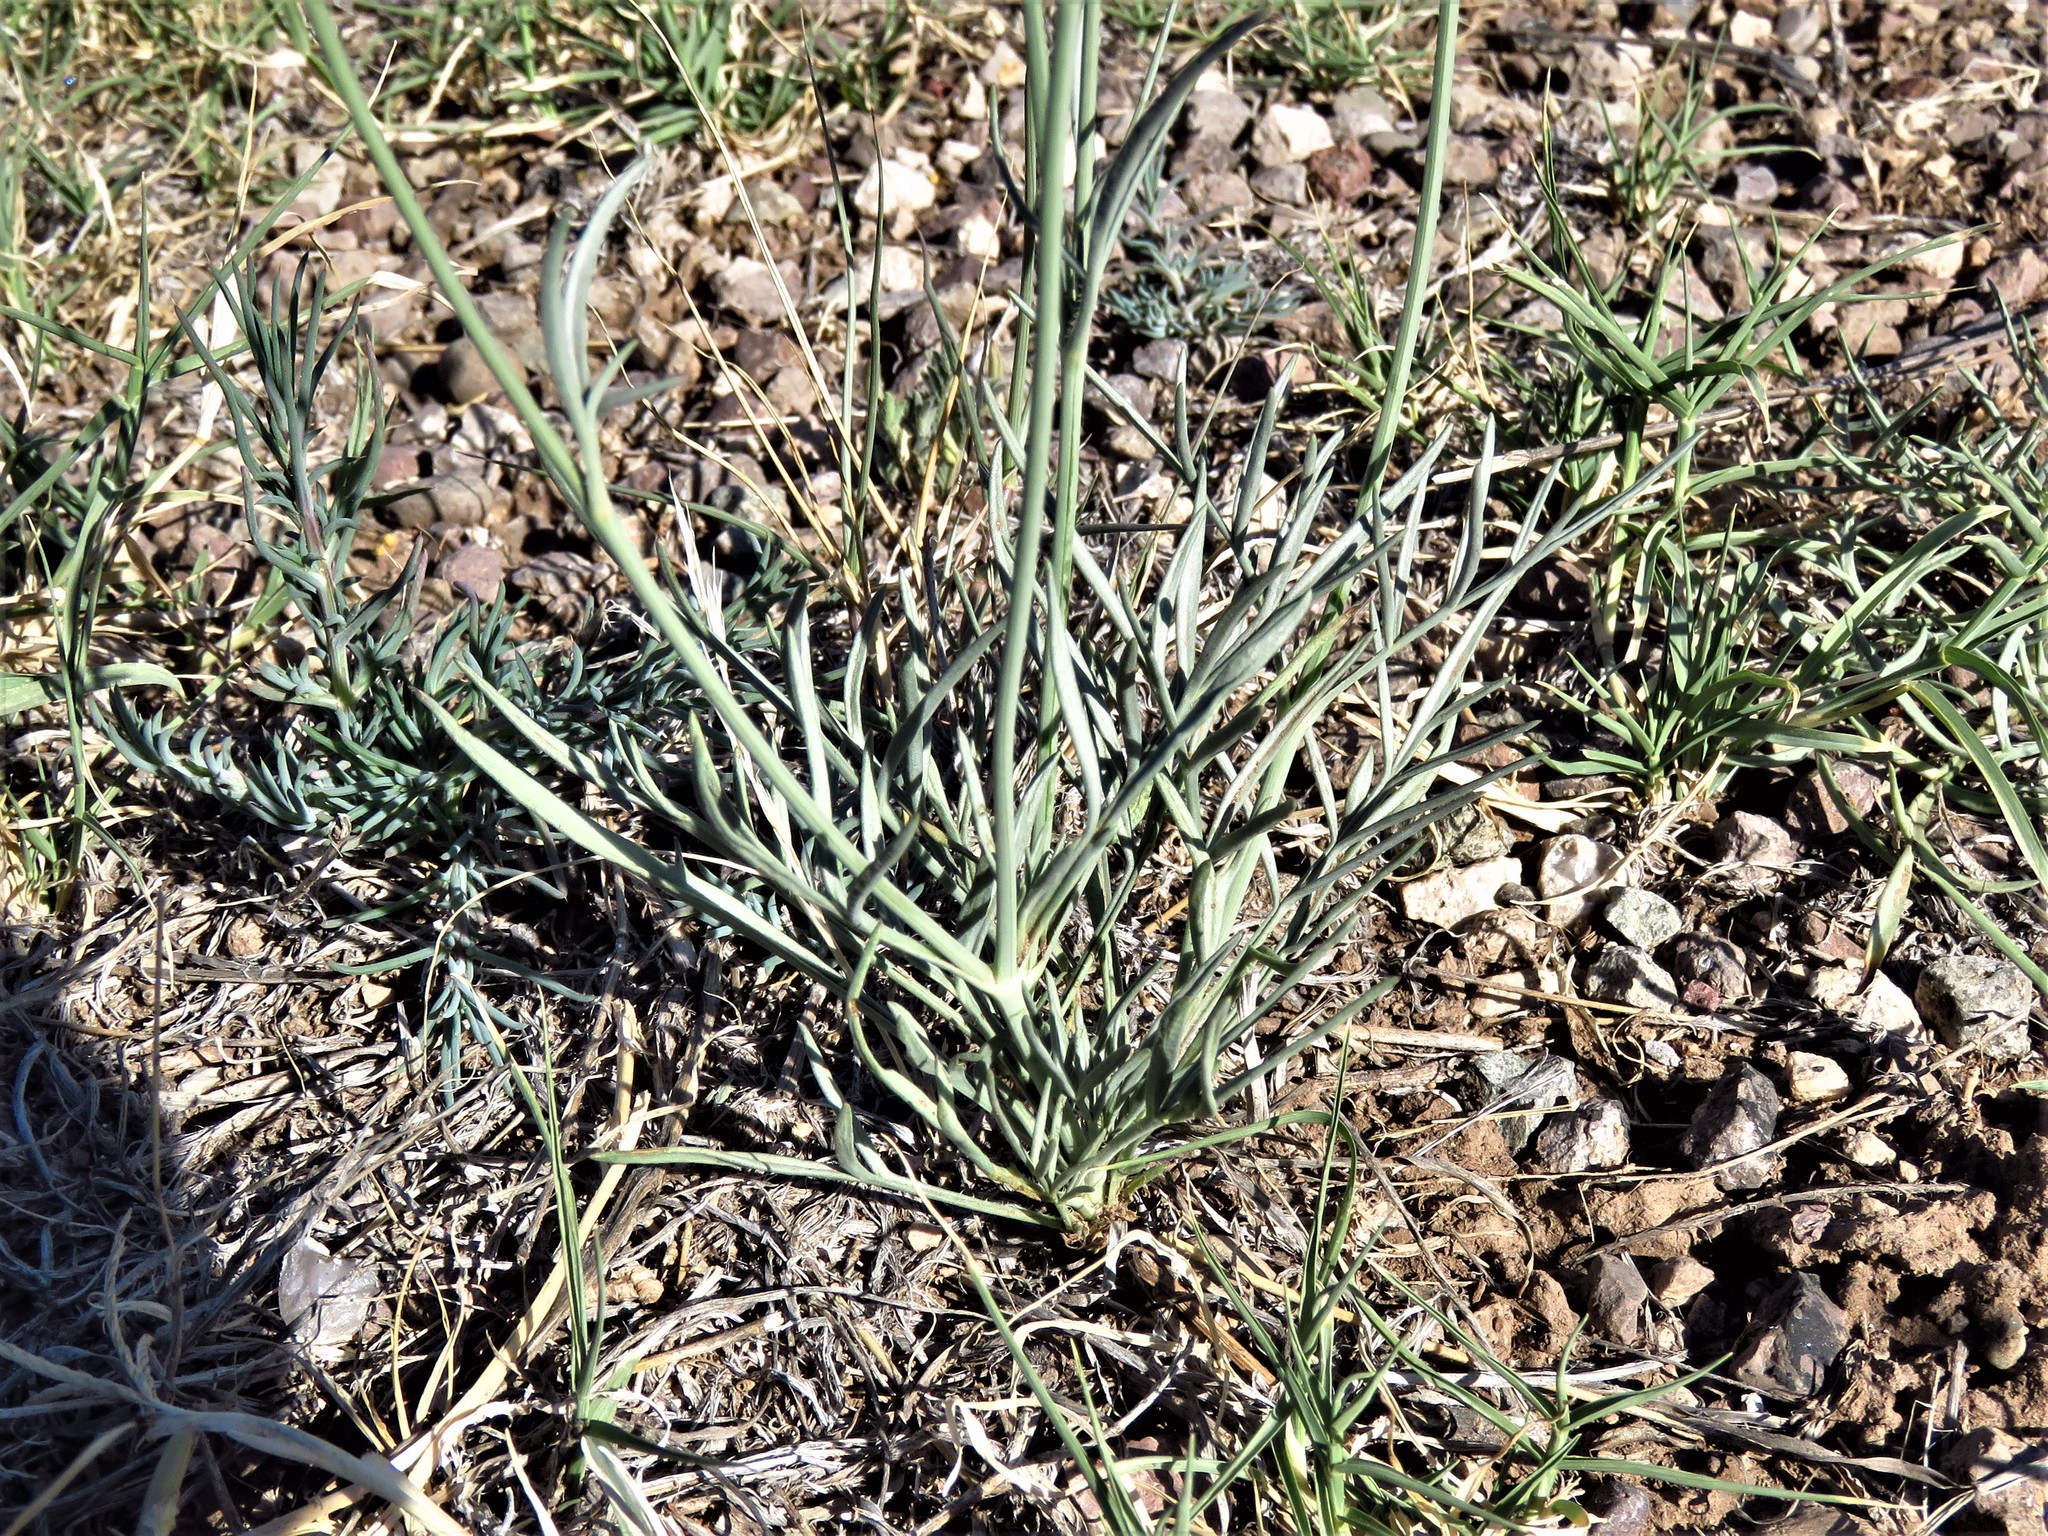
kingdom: Plantae
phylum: Tracheophyta
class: Magnoliopsida
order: Asterales
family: Asteraceae
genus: Thelesperma
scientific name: Thelesperma megapotamicum
